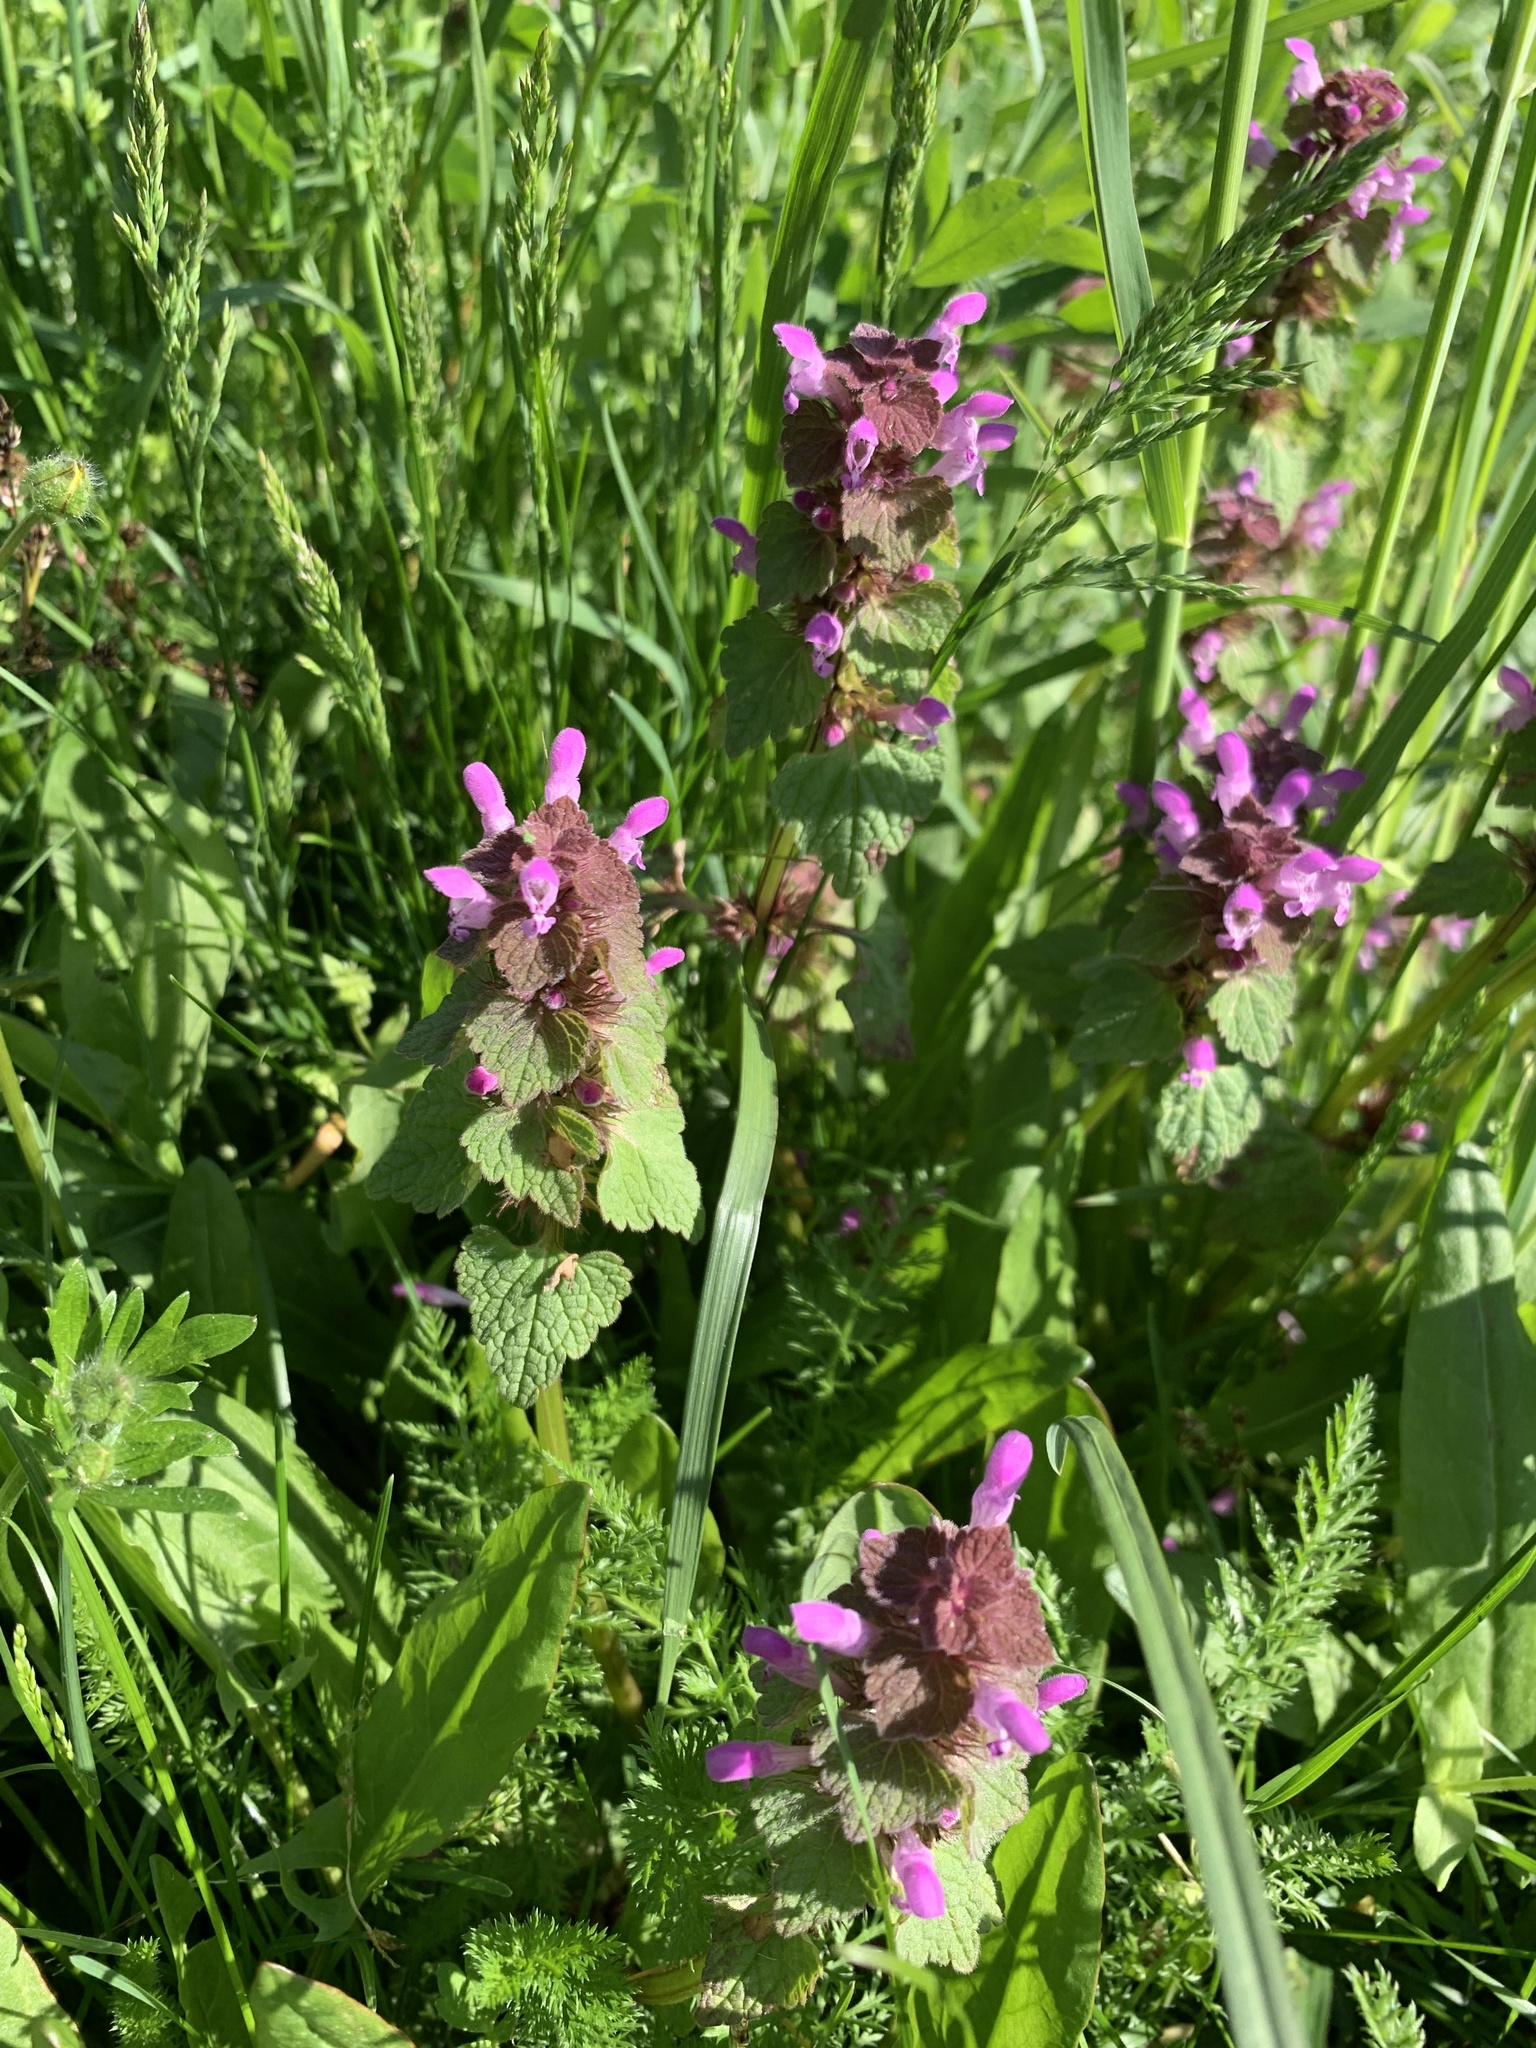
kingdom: Plantae
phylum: Tracheophyta
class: Magnoliopsida
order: Lamiales
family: Lamiaceae
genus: Lamium
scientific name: Lamium purpureum
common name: Red dead-nettle
